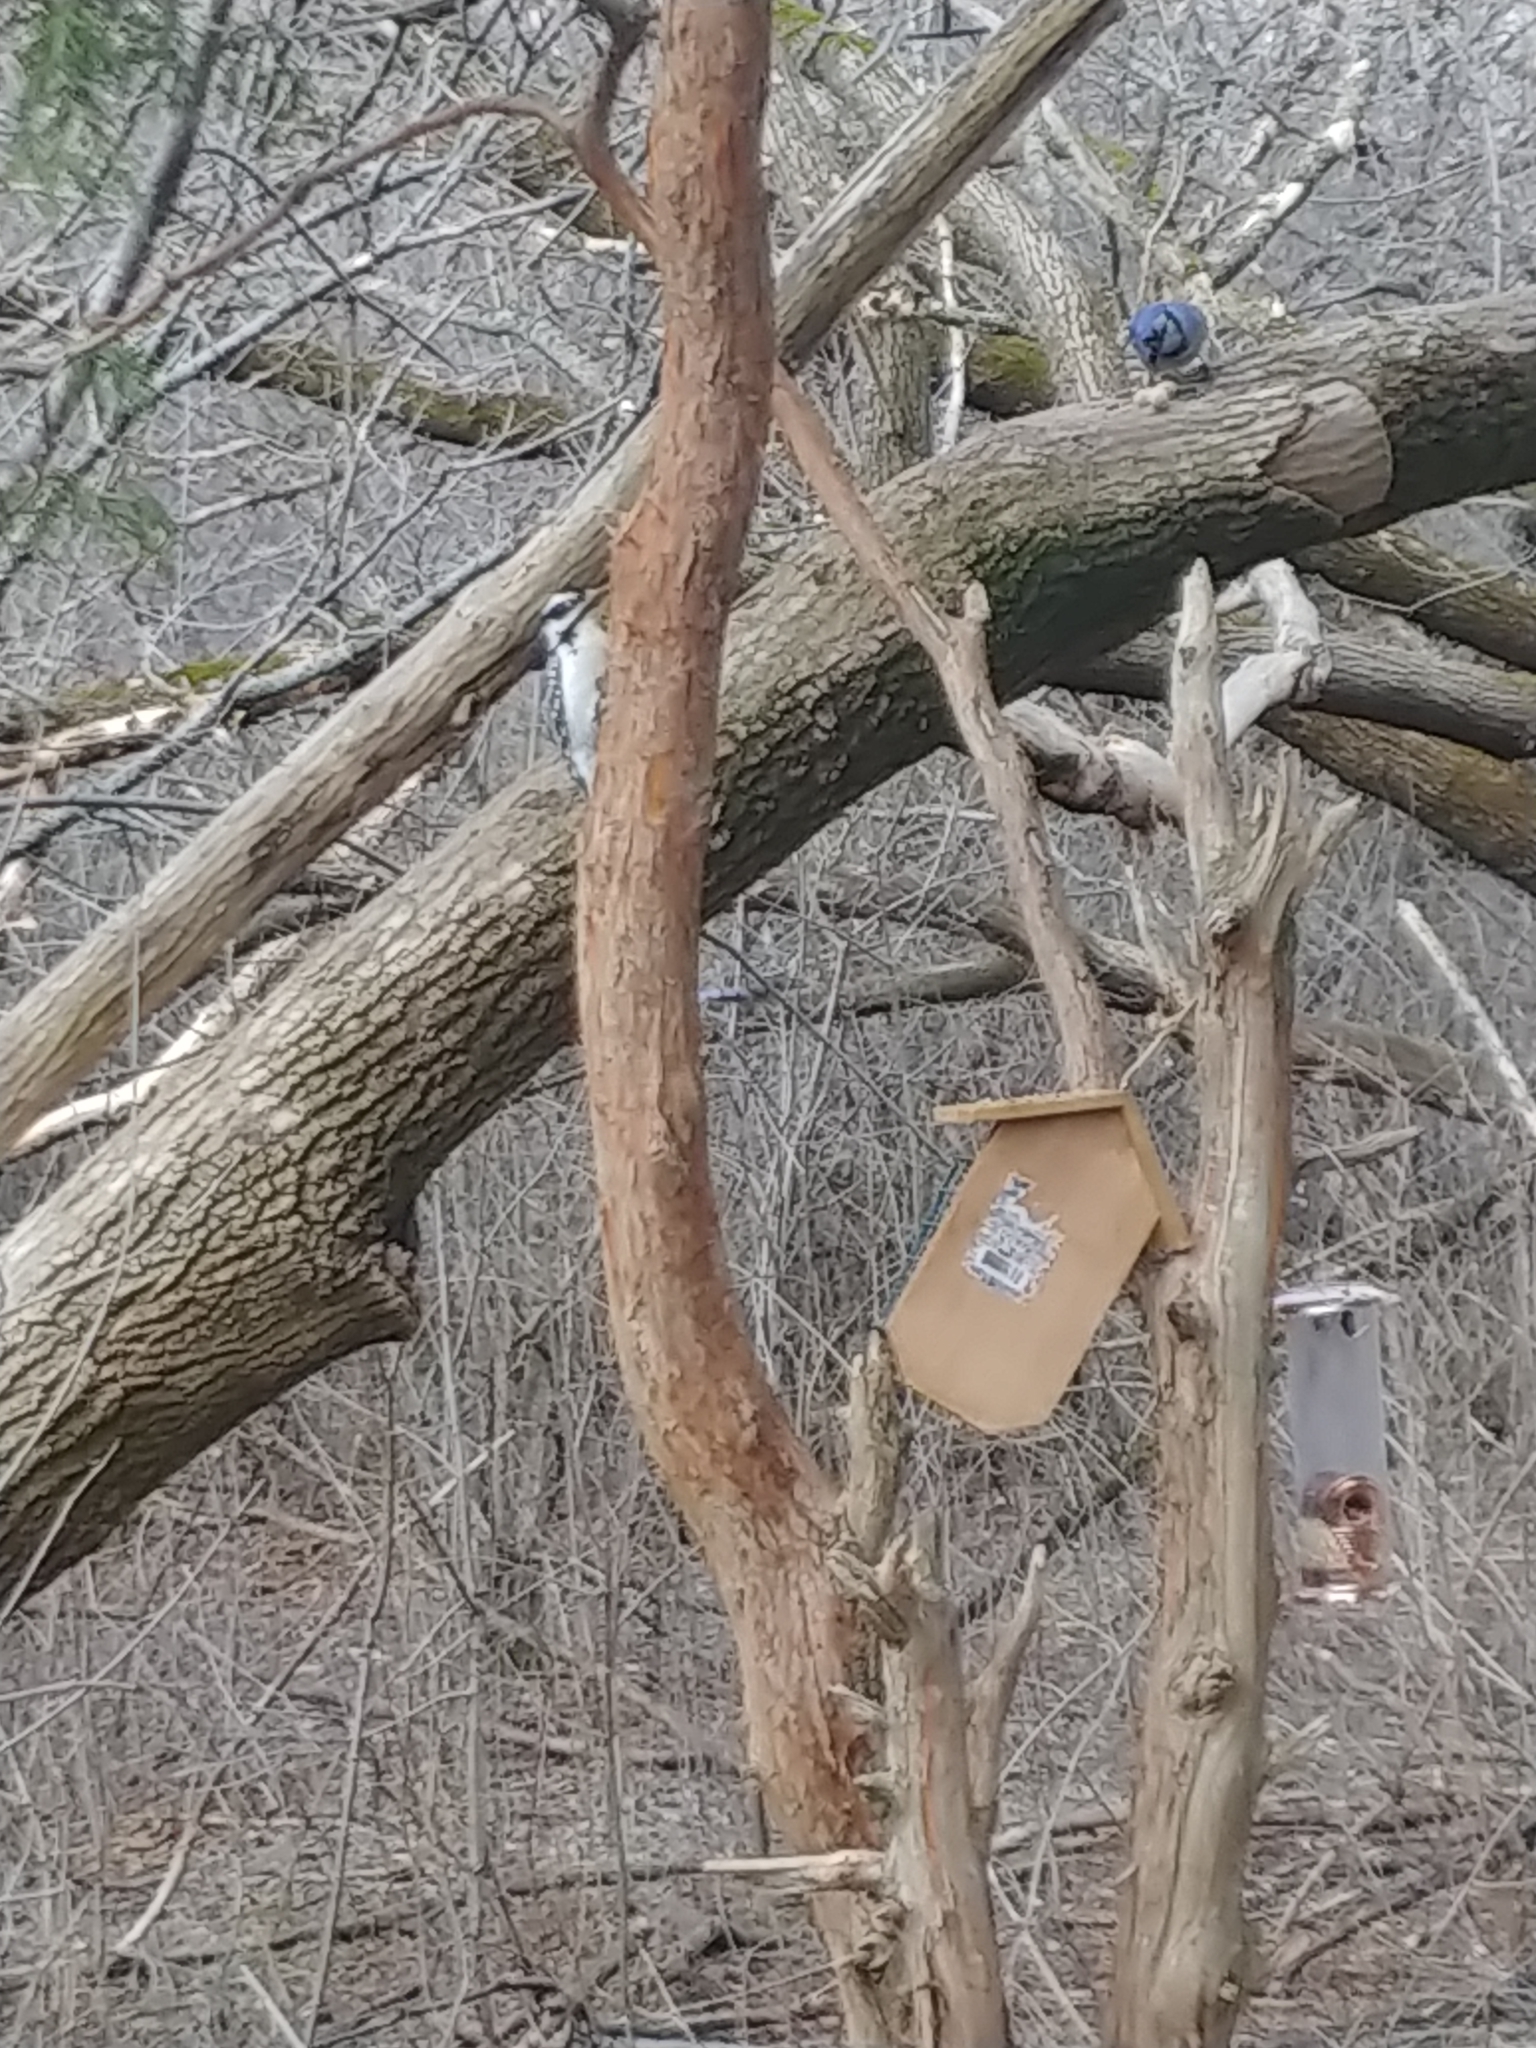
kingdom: Animalia
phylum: Chordata
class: Aves
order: Piciformes
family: Picidae
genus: Leuconotopicus
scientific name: Leuconotopicus villosus
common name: Hairy woodpecker
